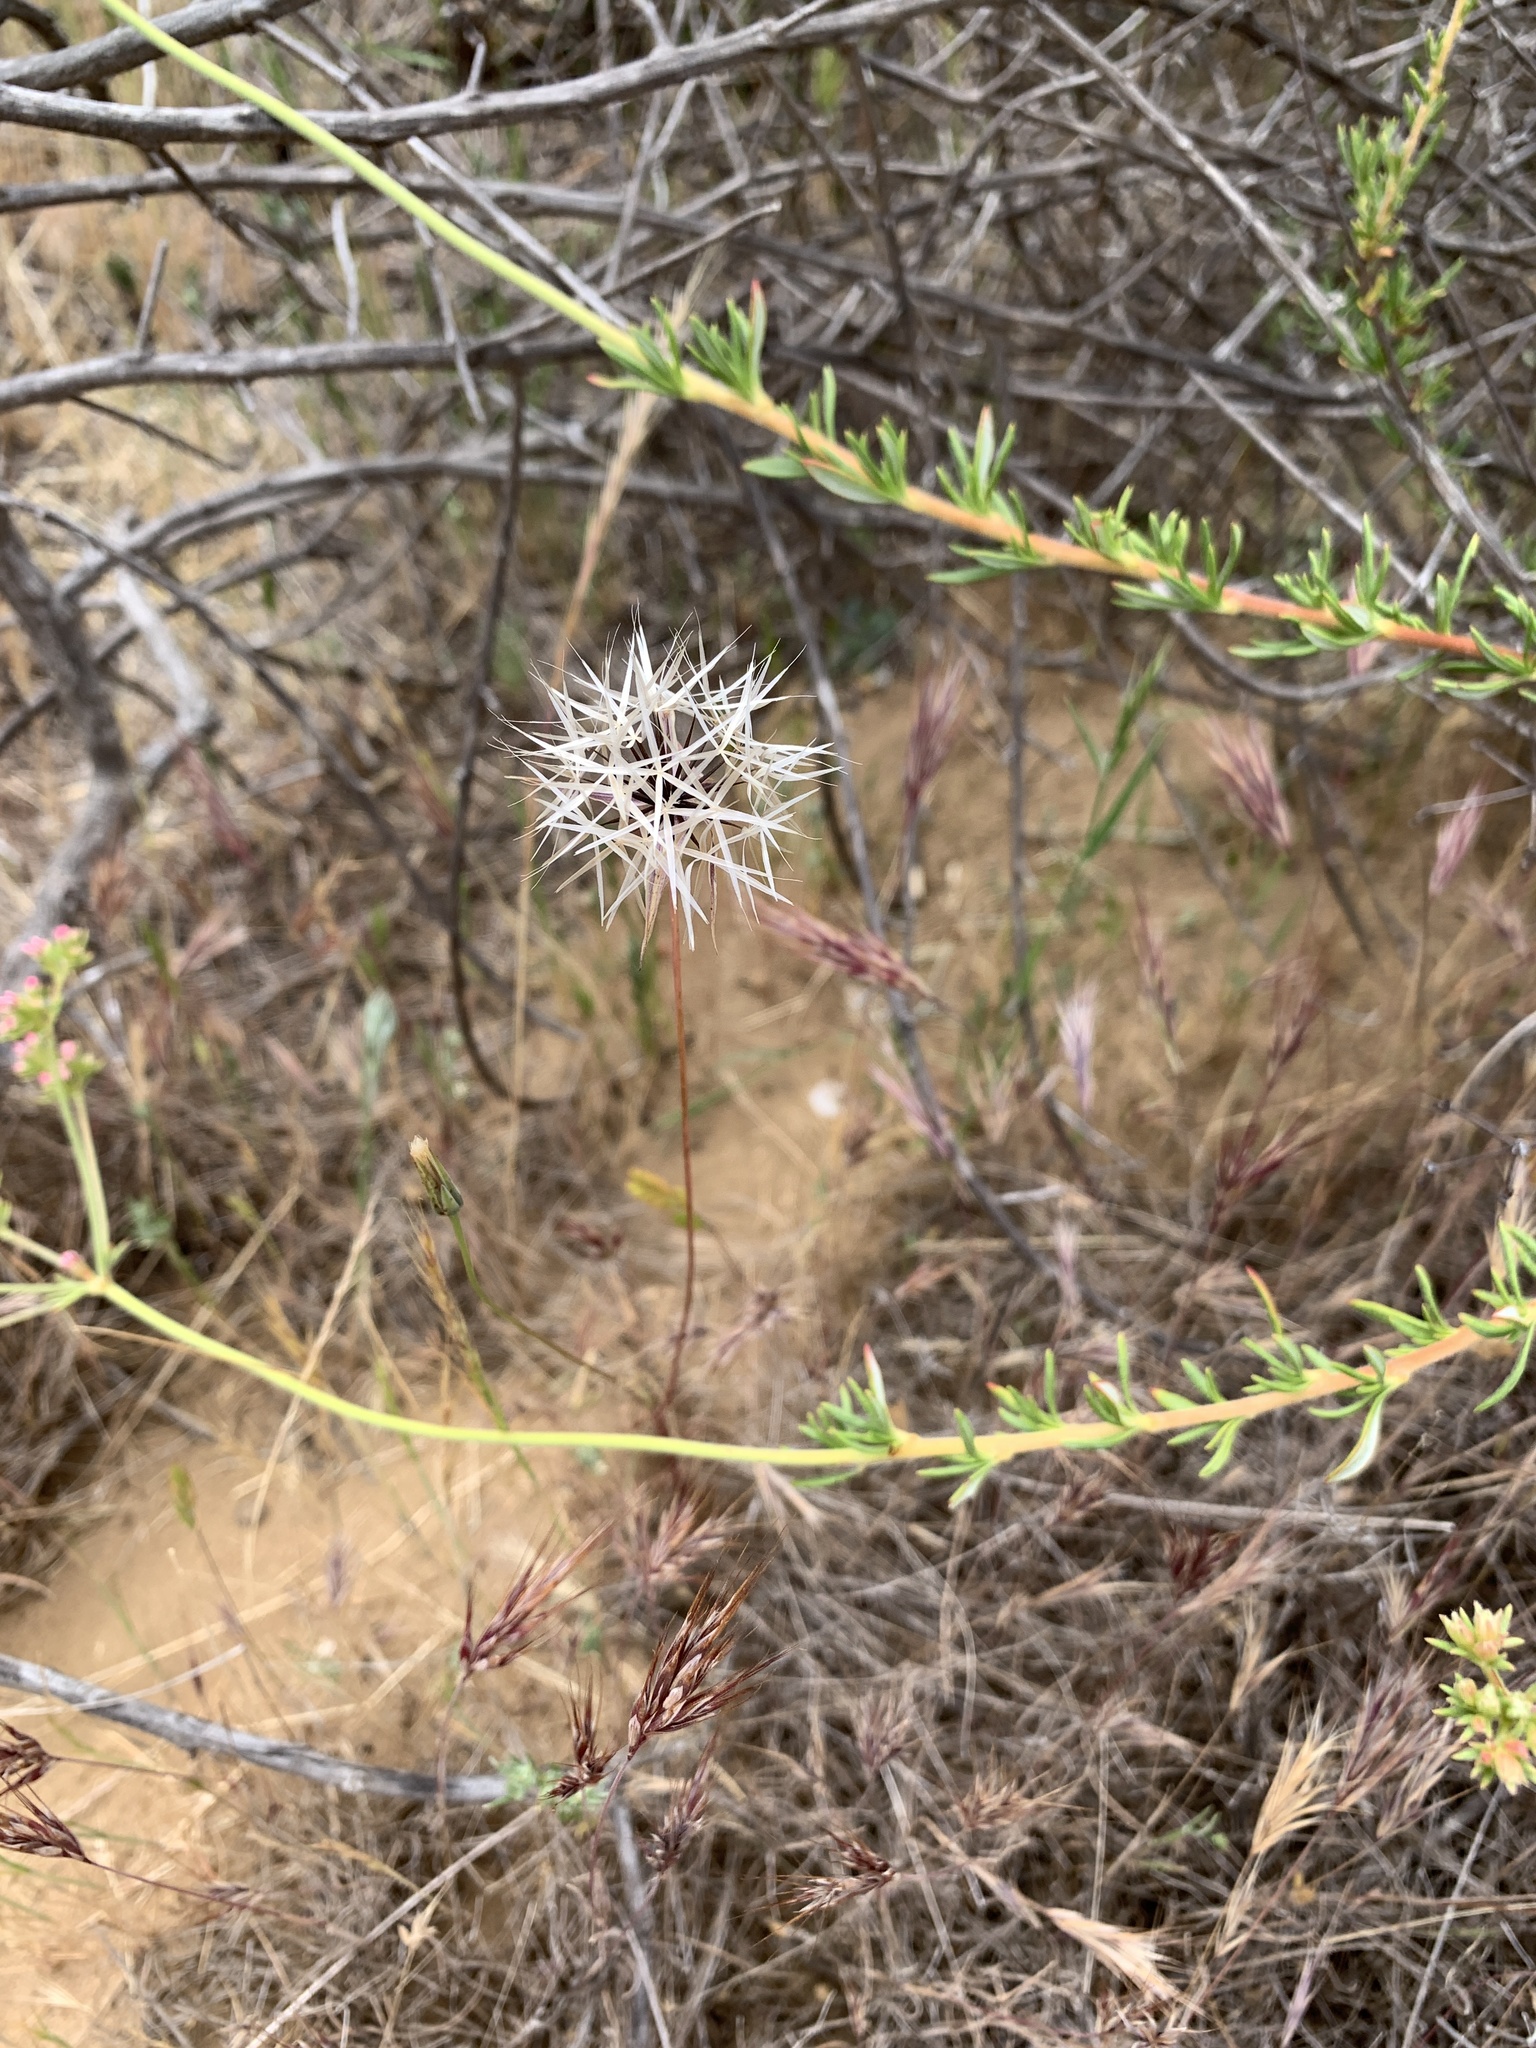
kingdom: Plantae
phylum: Tracheophyta
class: Magnoliopsida
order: Asterales
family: Asteraceae
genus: Microseris
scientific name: Microseris lindleyi
